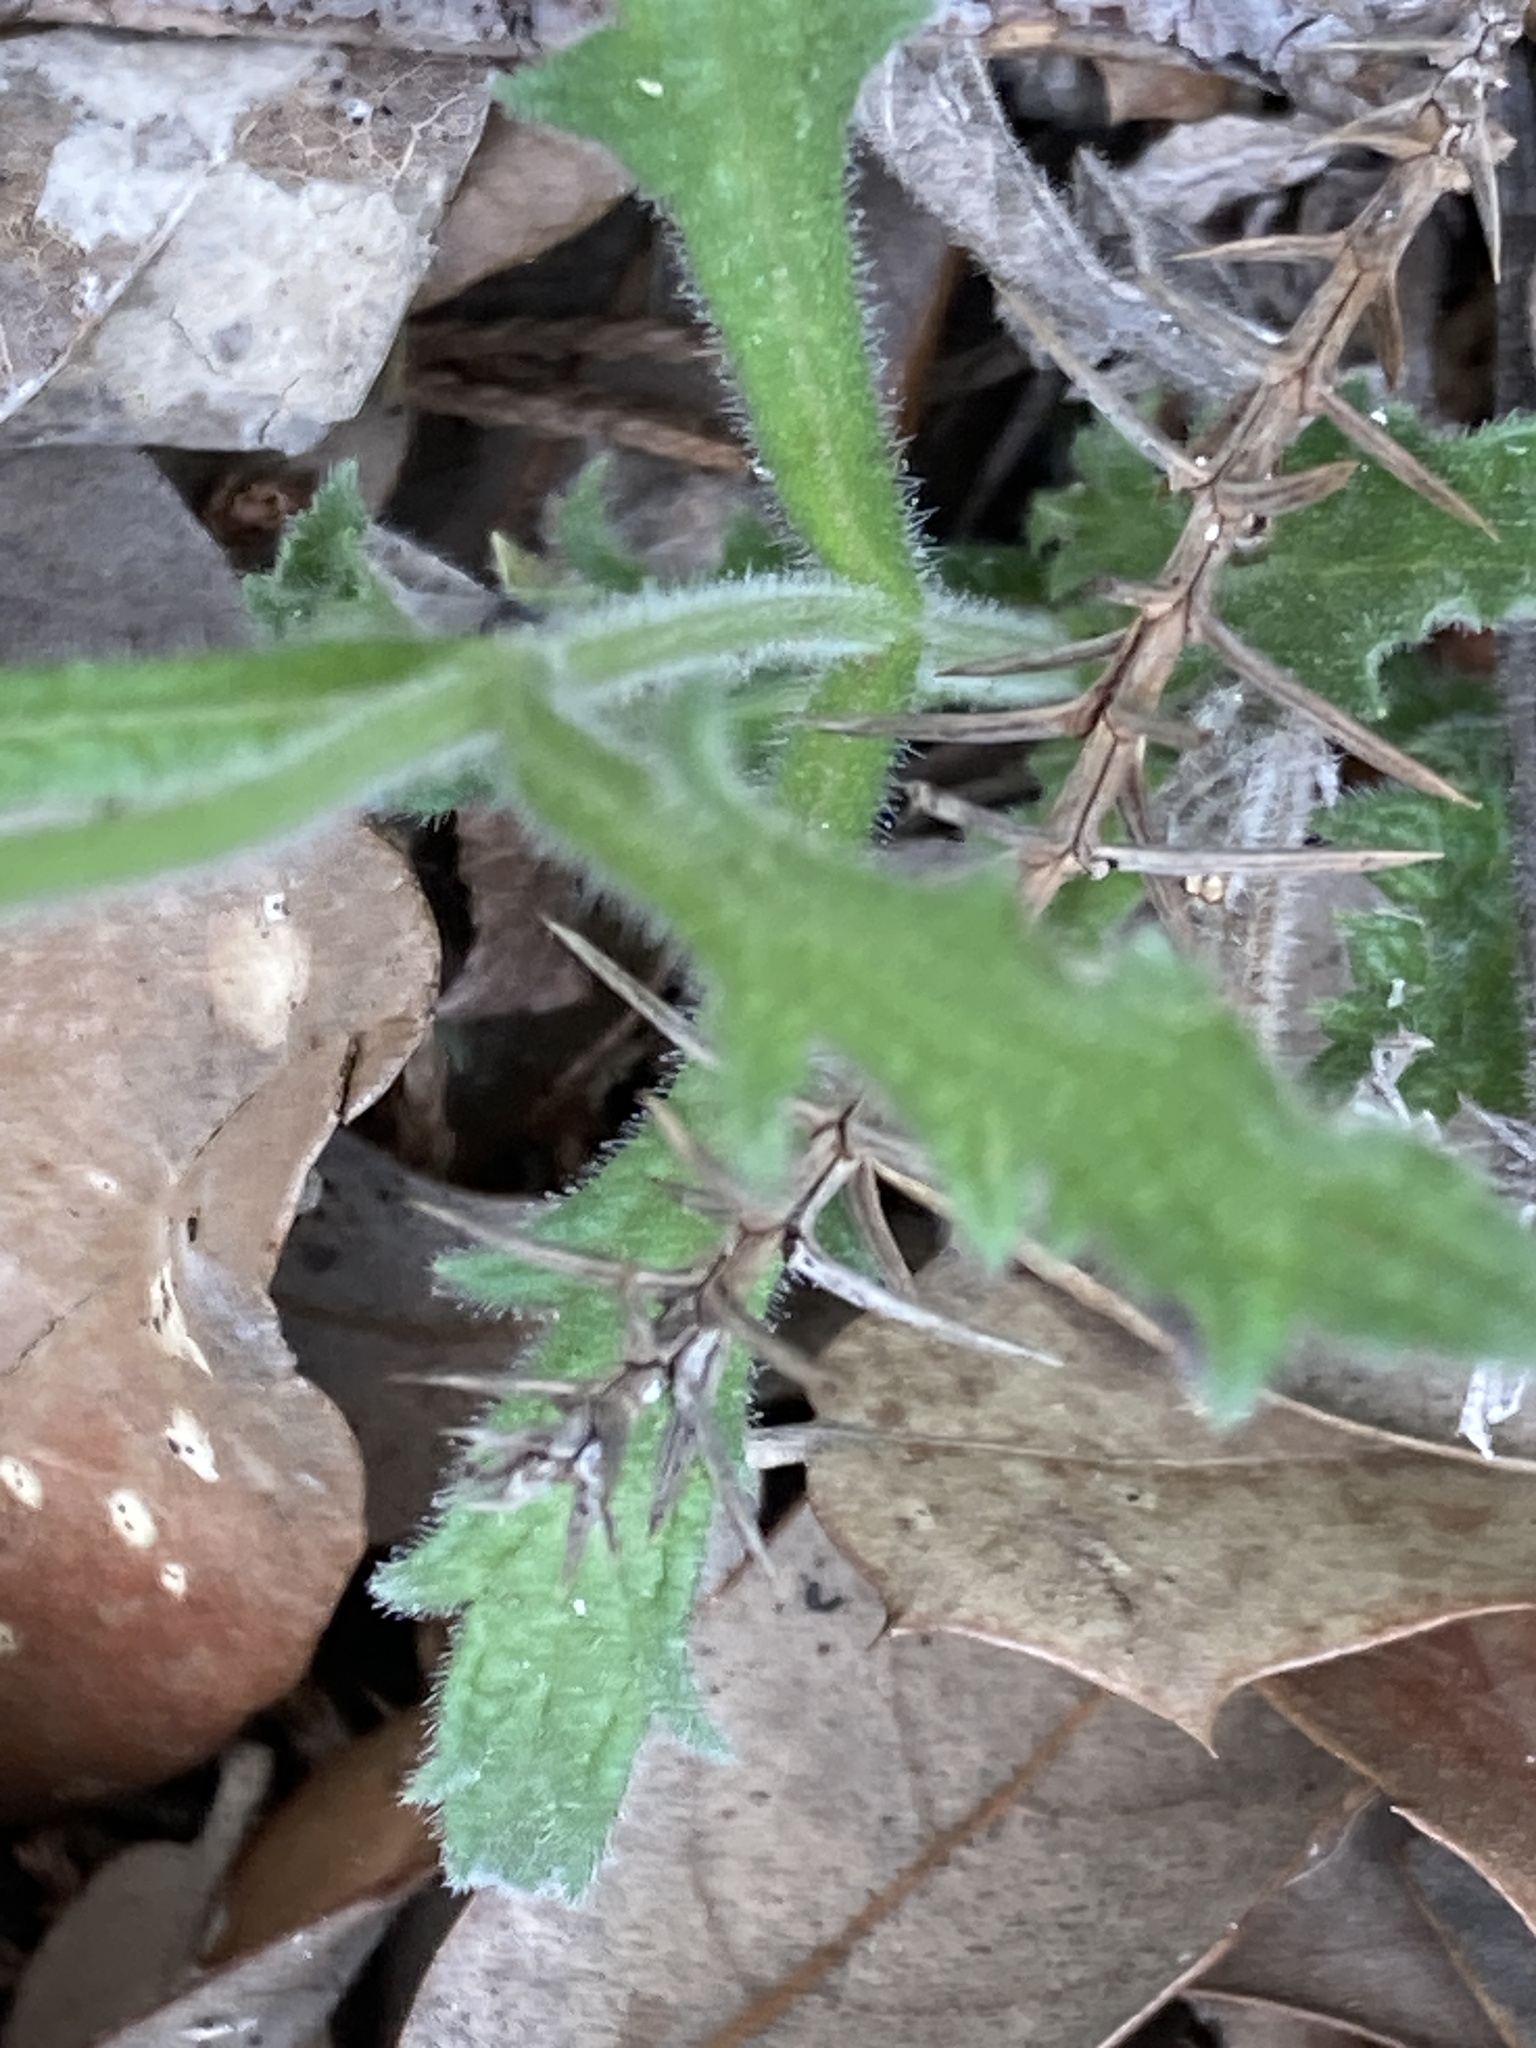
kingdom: Plantae
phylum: Tracheophyta
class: Magnoliopsida
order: Lamiales
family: Verbenaceae
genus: Verbena
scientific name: Verbena canescens
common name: Gray vervain
